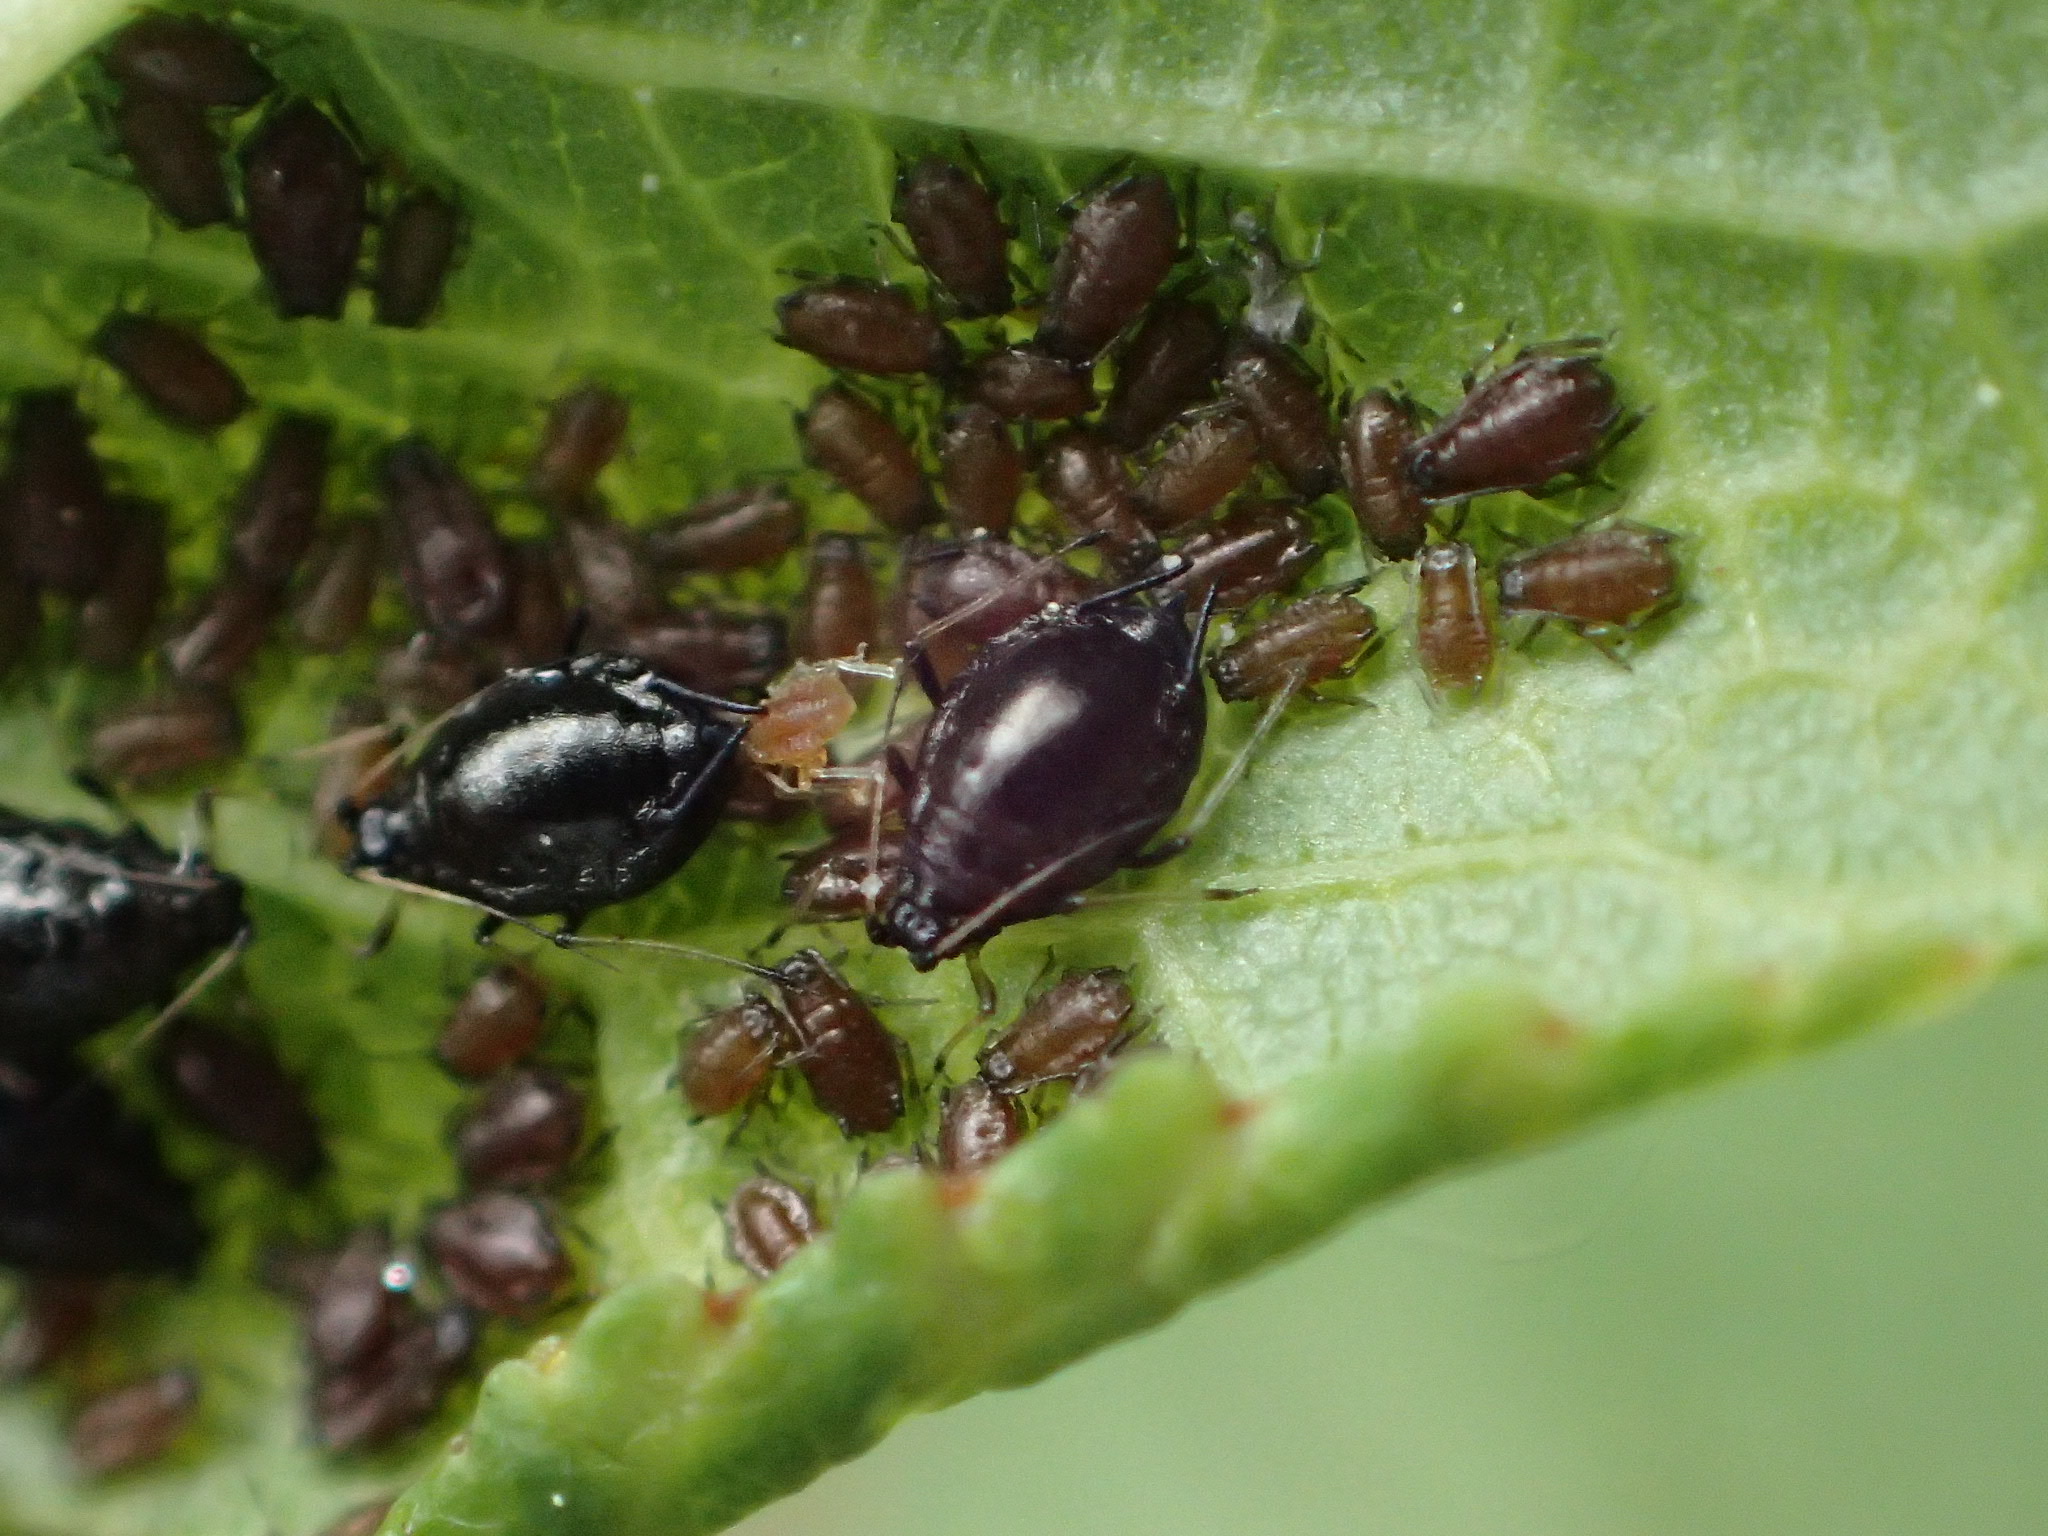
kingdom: Animalia
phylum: Arthropoda
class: Insecta
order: Hemiptera
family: Aphididae
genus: Myzus
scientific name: Myzus cerasi
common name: Black cherry aphid
